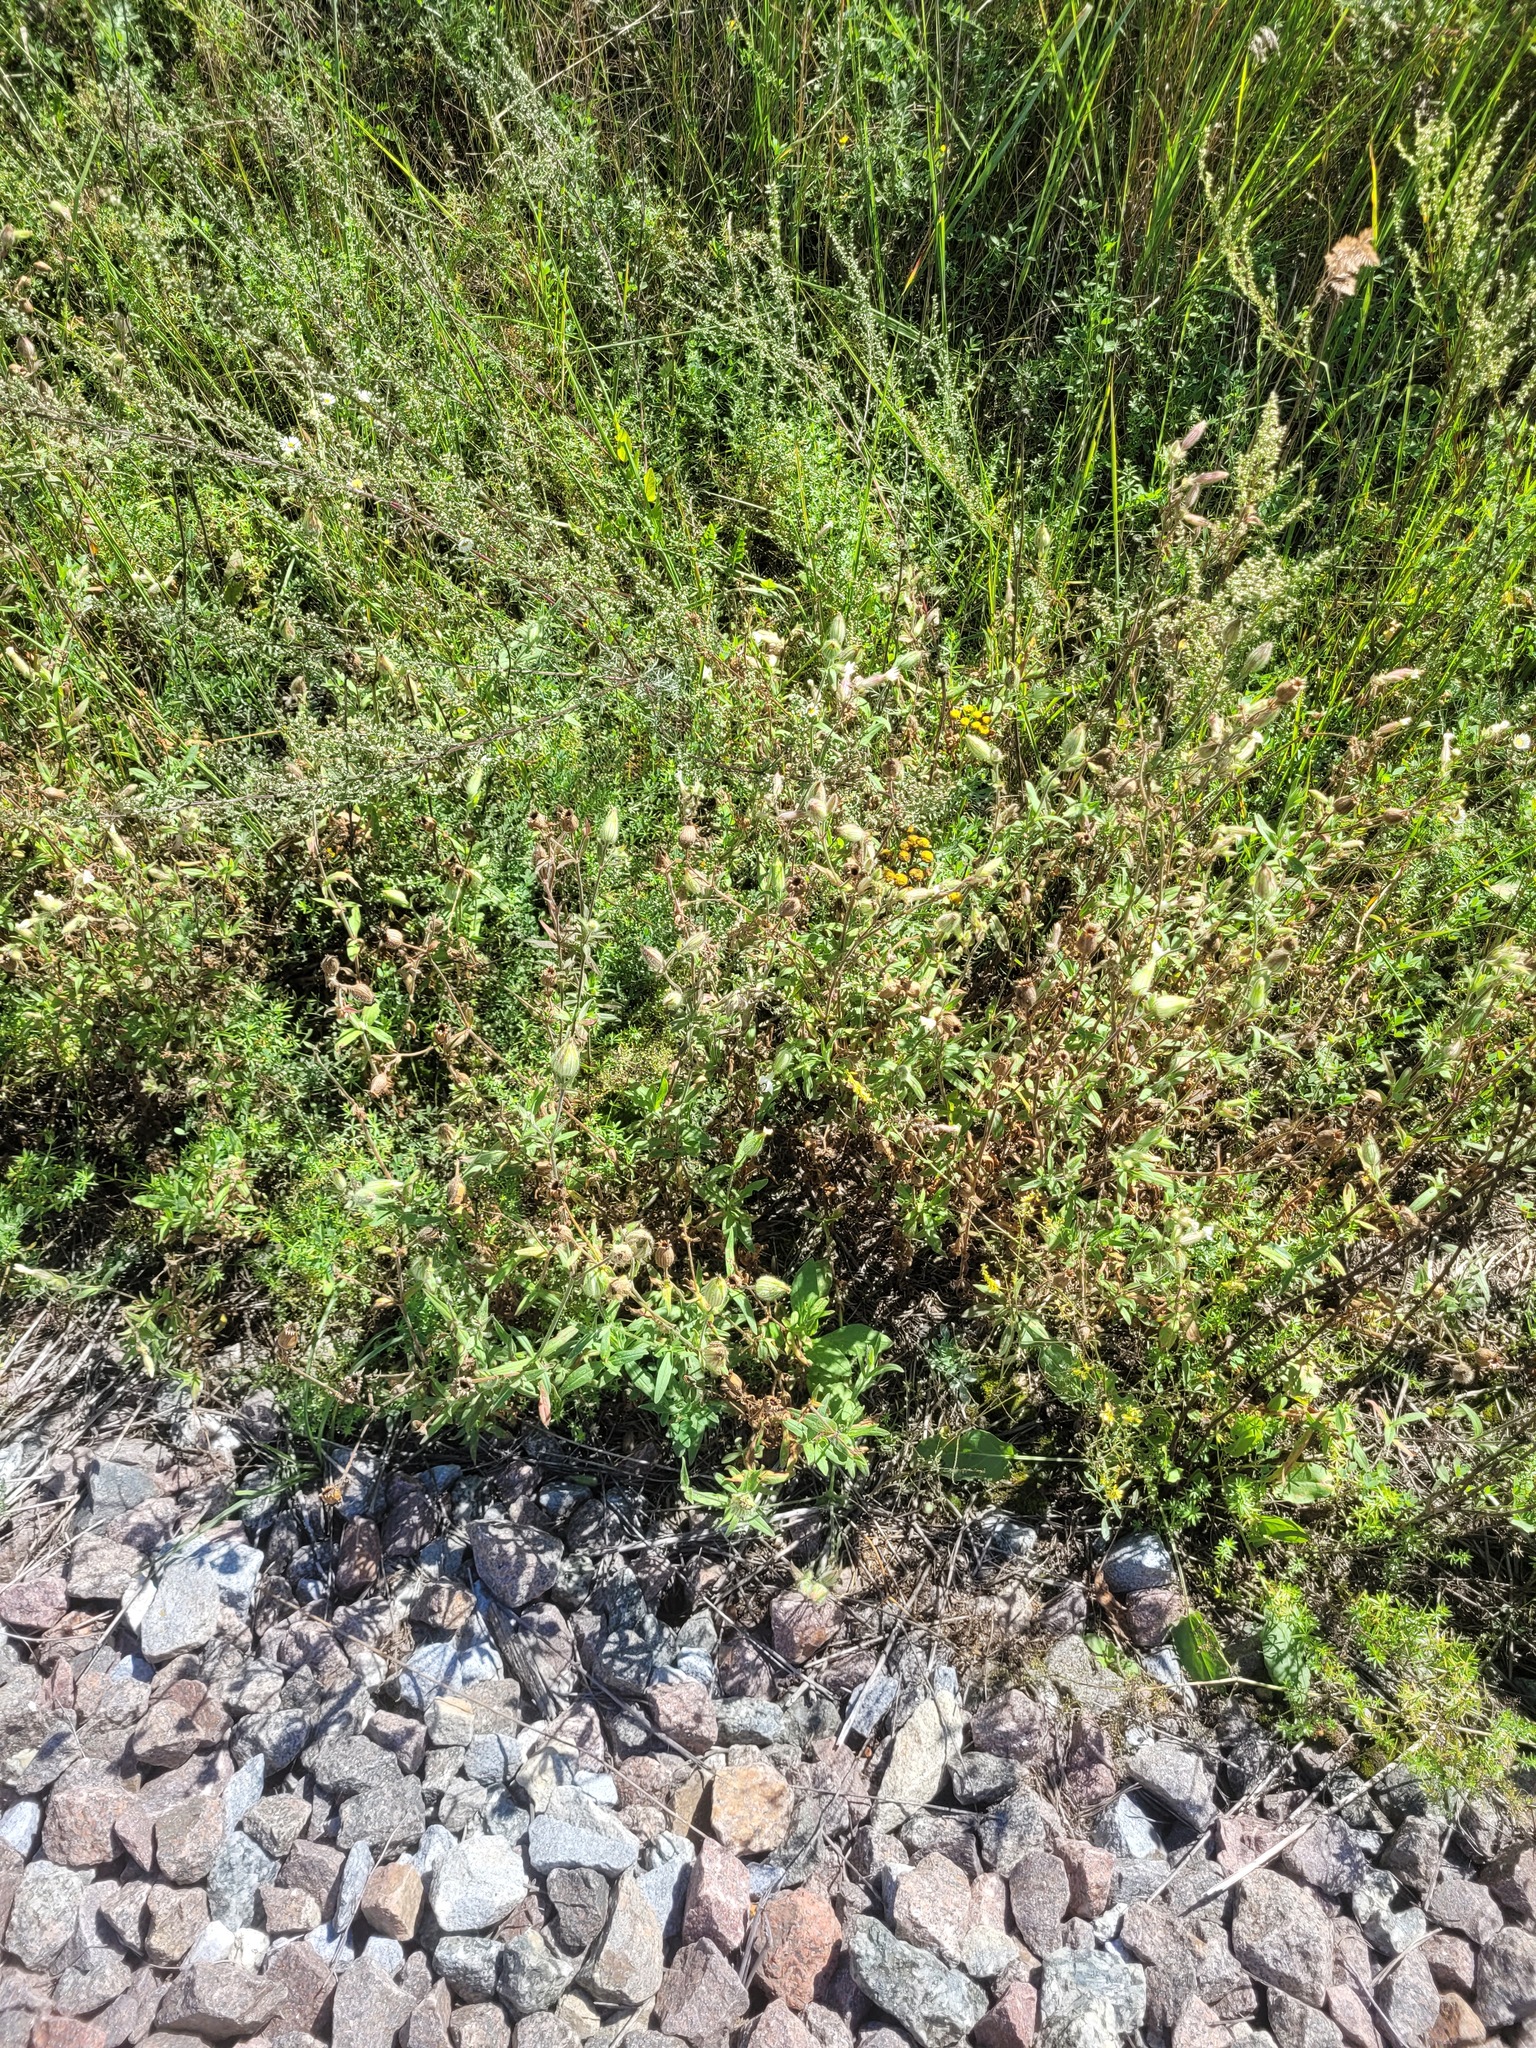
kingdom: Plantae
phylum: Tracheophyta
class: Magnoliopsida
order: Caryophyllales
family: Caryophyllaceae
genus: Silene
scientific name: Silene latifolia
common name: White campion
